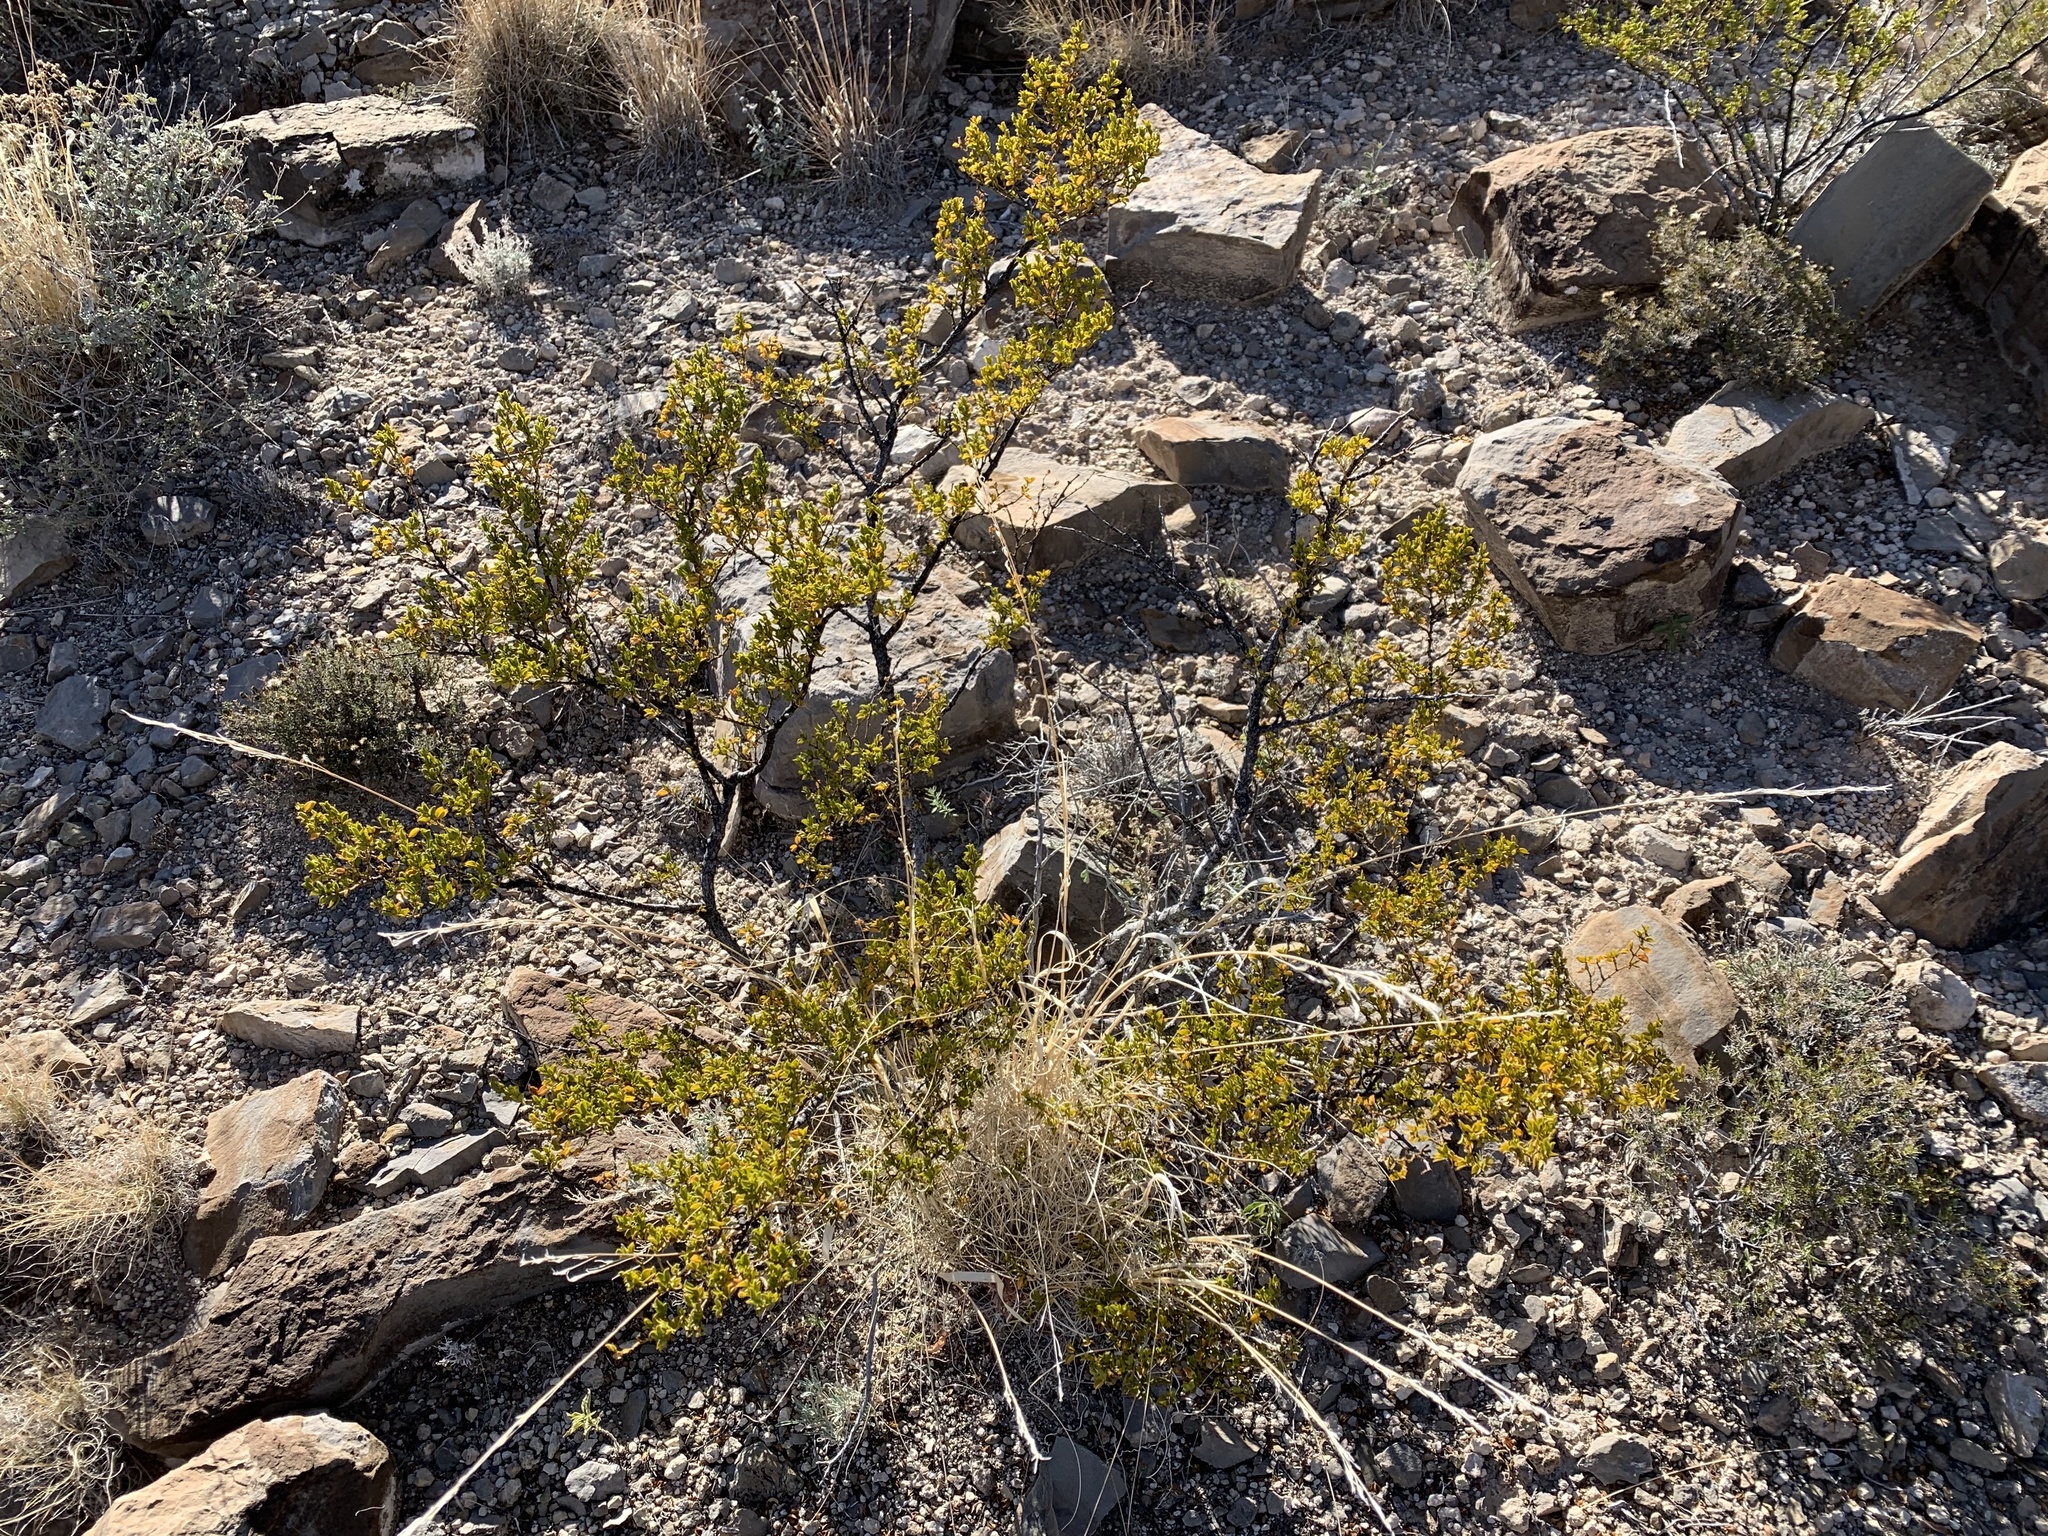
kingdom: Plantae
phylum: Tracheophyta
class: Magnoliopsida
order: Zygophyllales
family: Zygophyllaceae
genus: Larrea
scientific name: Larrea tridentata
